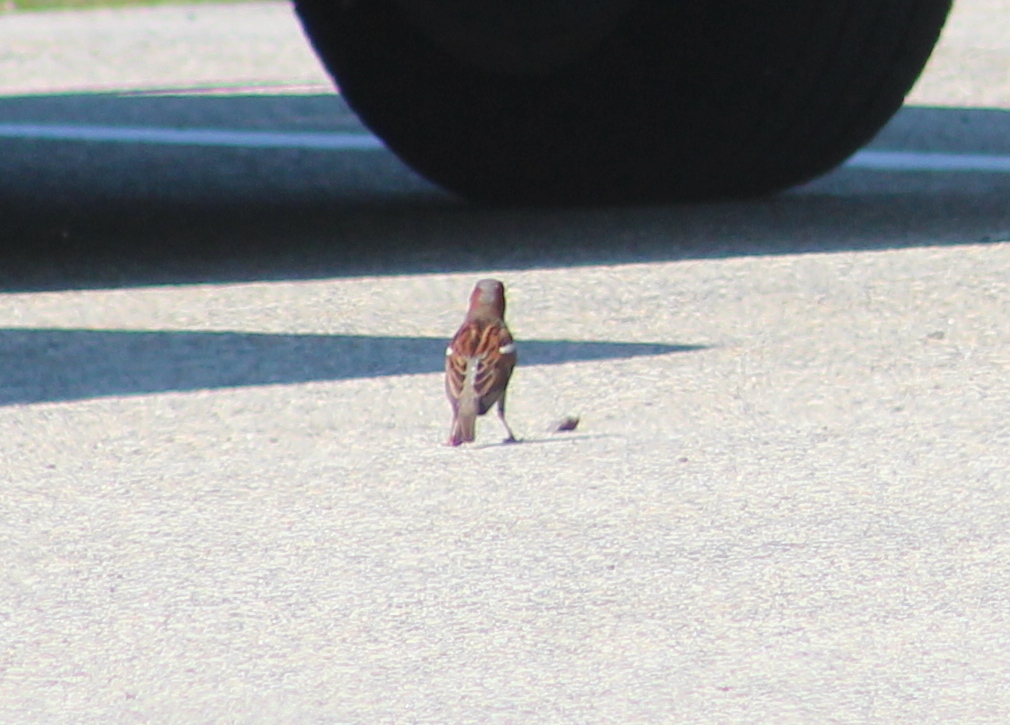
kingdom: Animalia
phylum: Chordata
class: Aves
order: Passeriformes
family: Passeridae
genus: Passer
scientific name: Passer domesticus
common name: House sparrow
